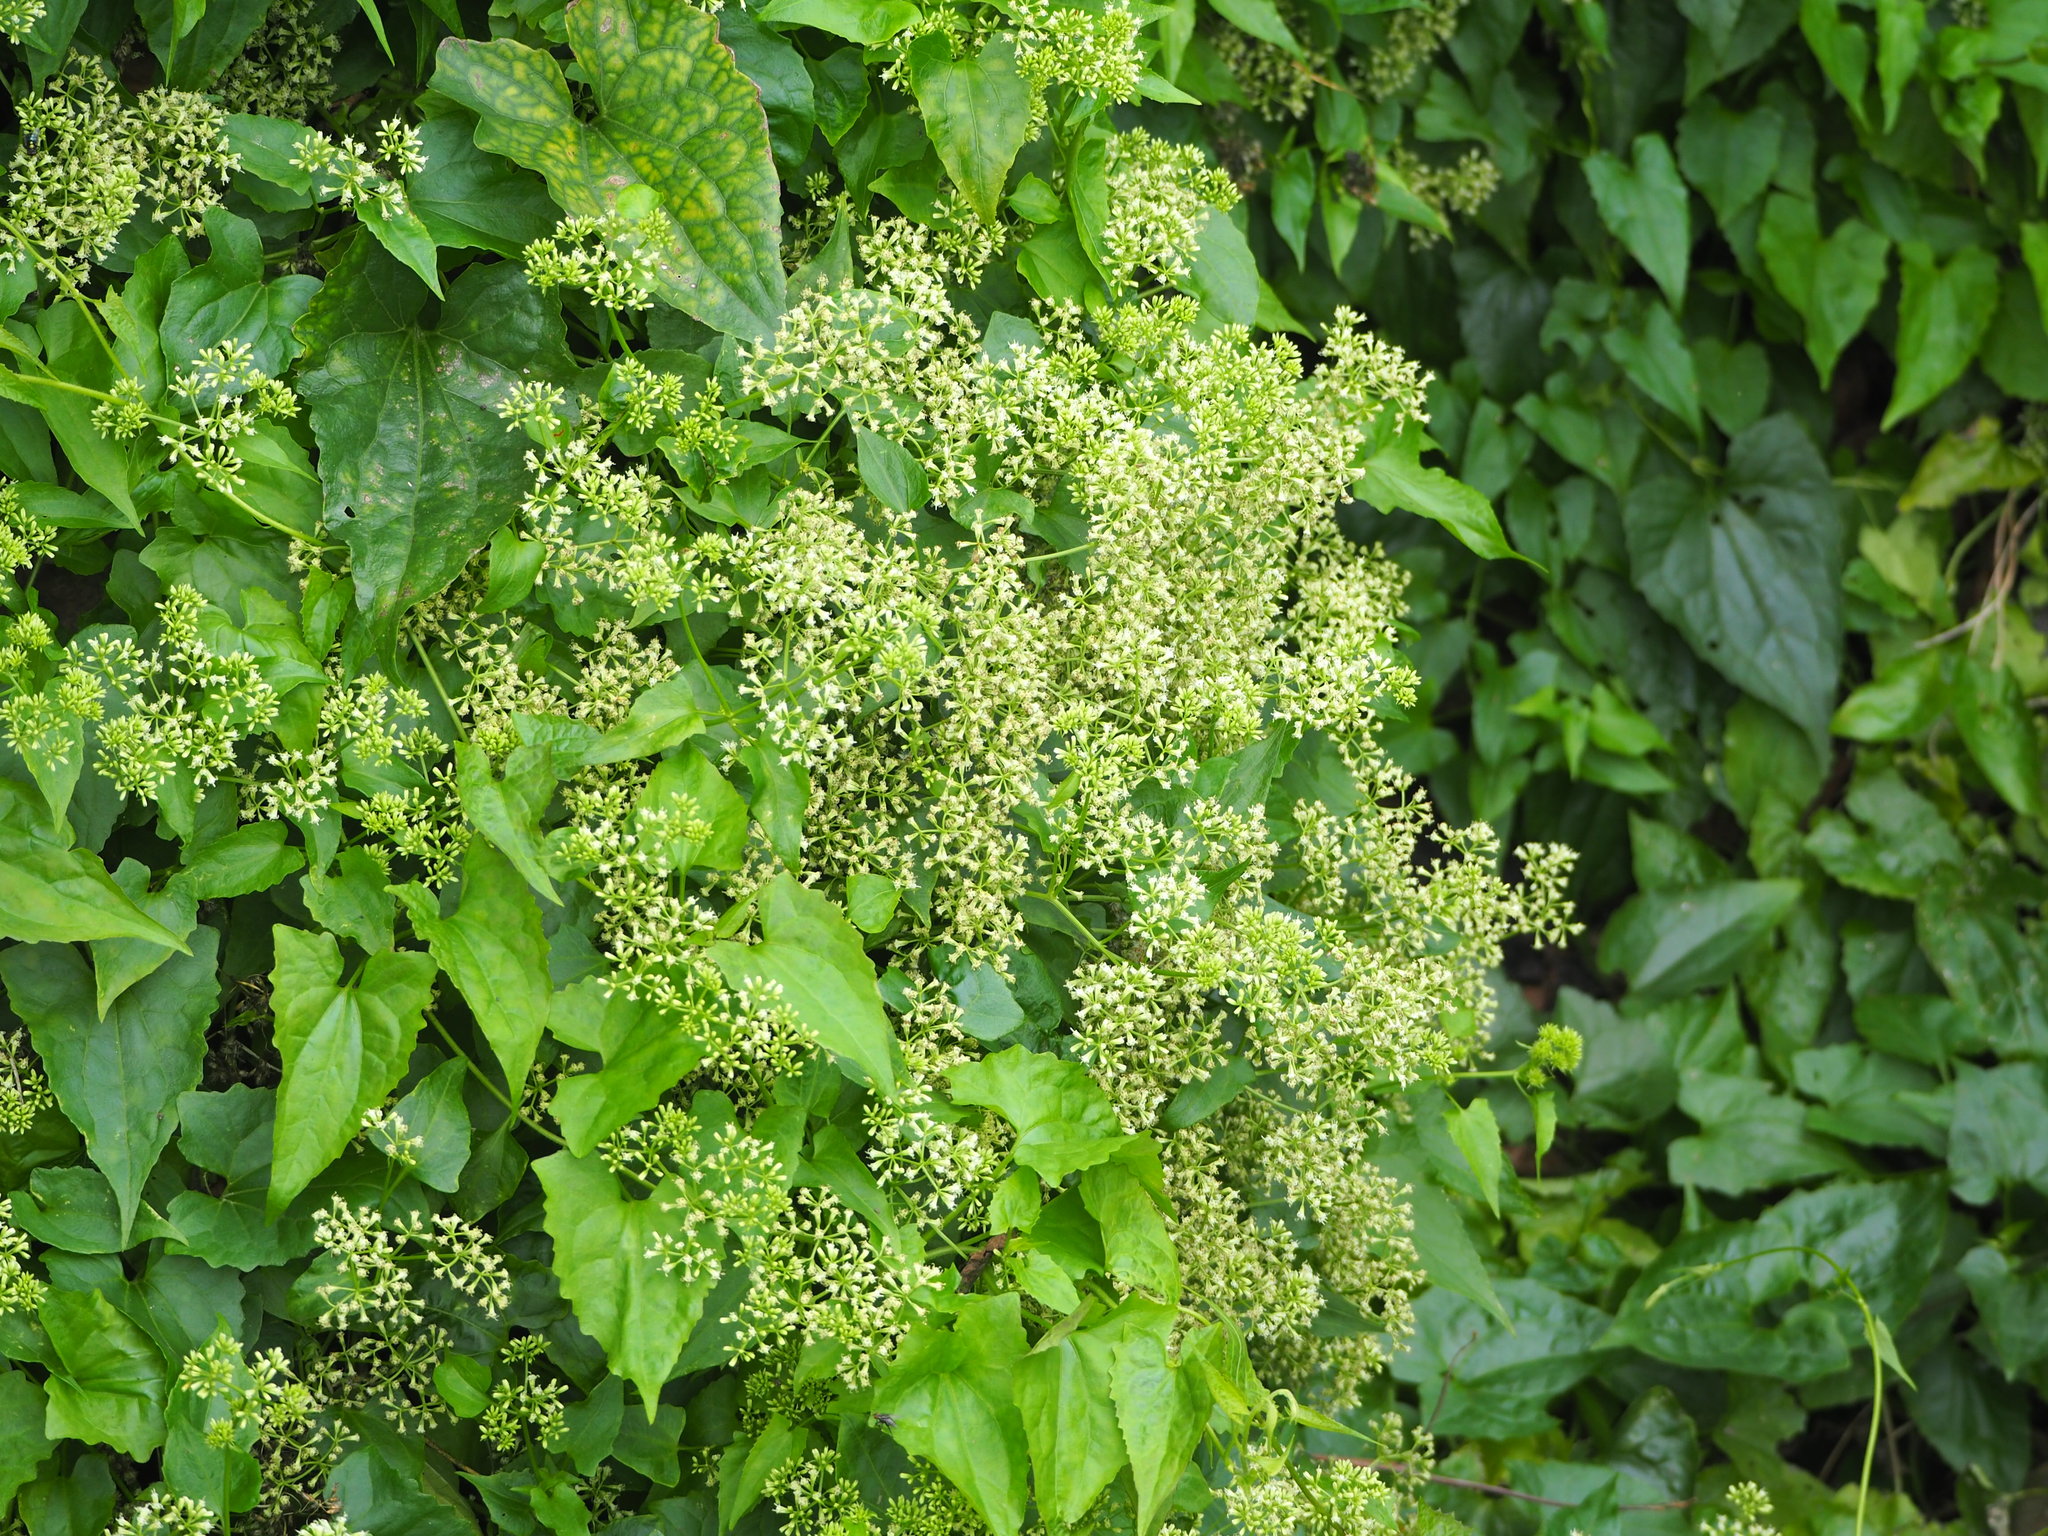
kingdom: Plantae
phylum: Tracheophyta
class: Magnoliopsida
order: Asterales
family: Asteraceae
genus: Mikania
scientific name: Mikania micrantha
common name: Mile-a-minute
